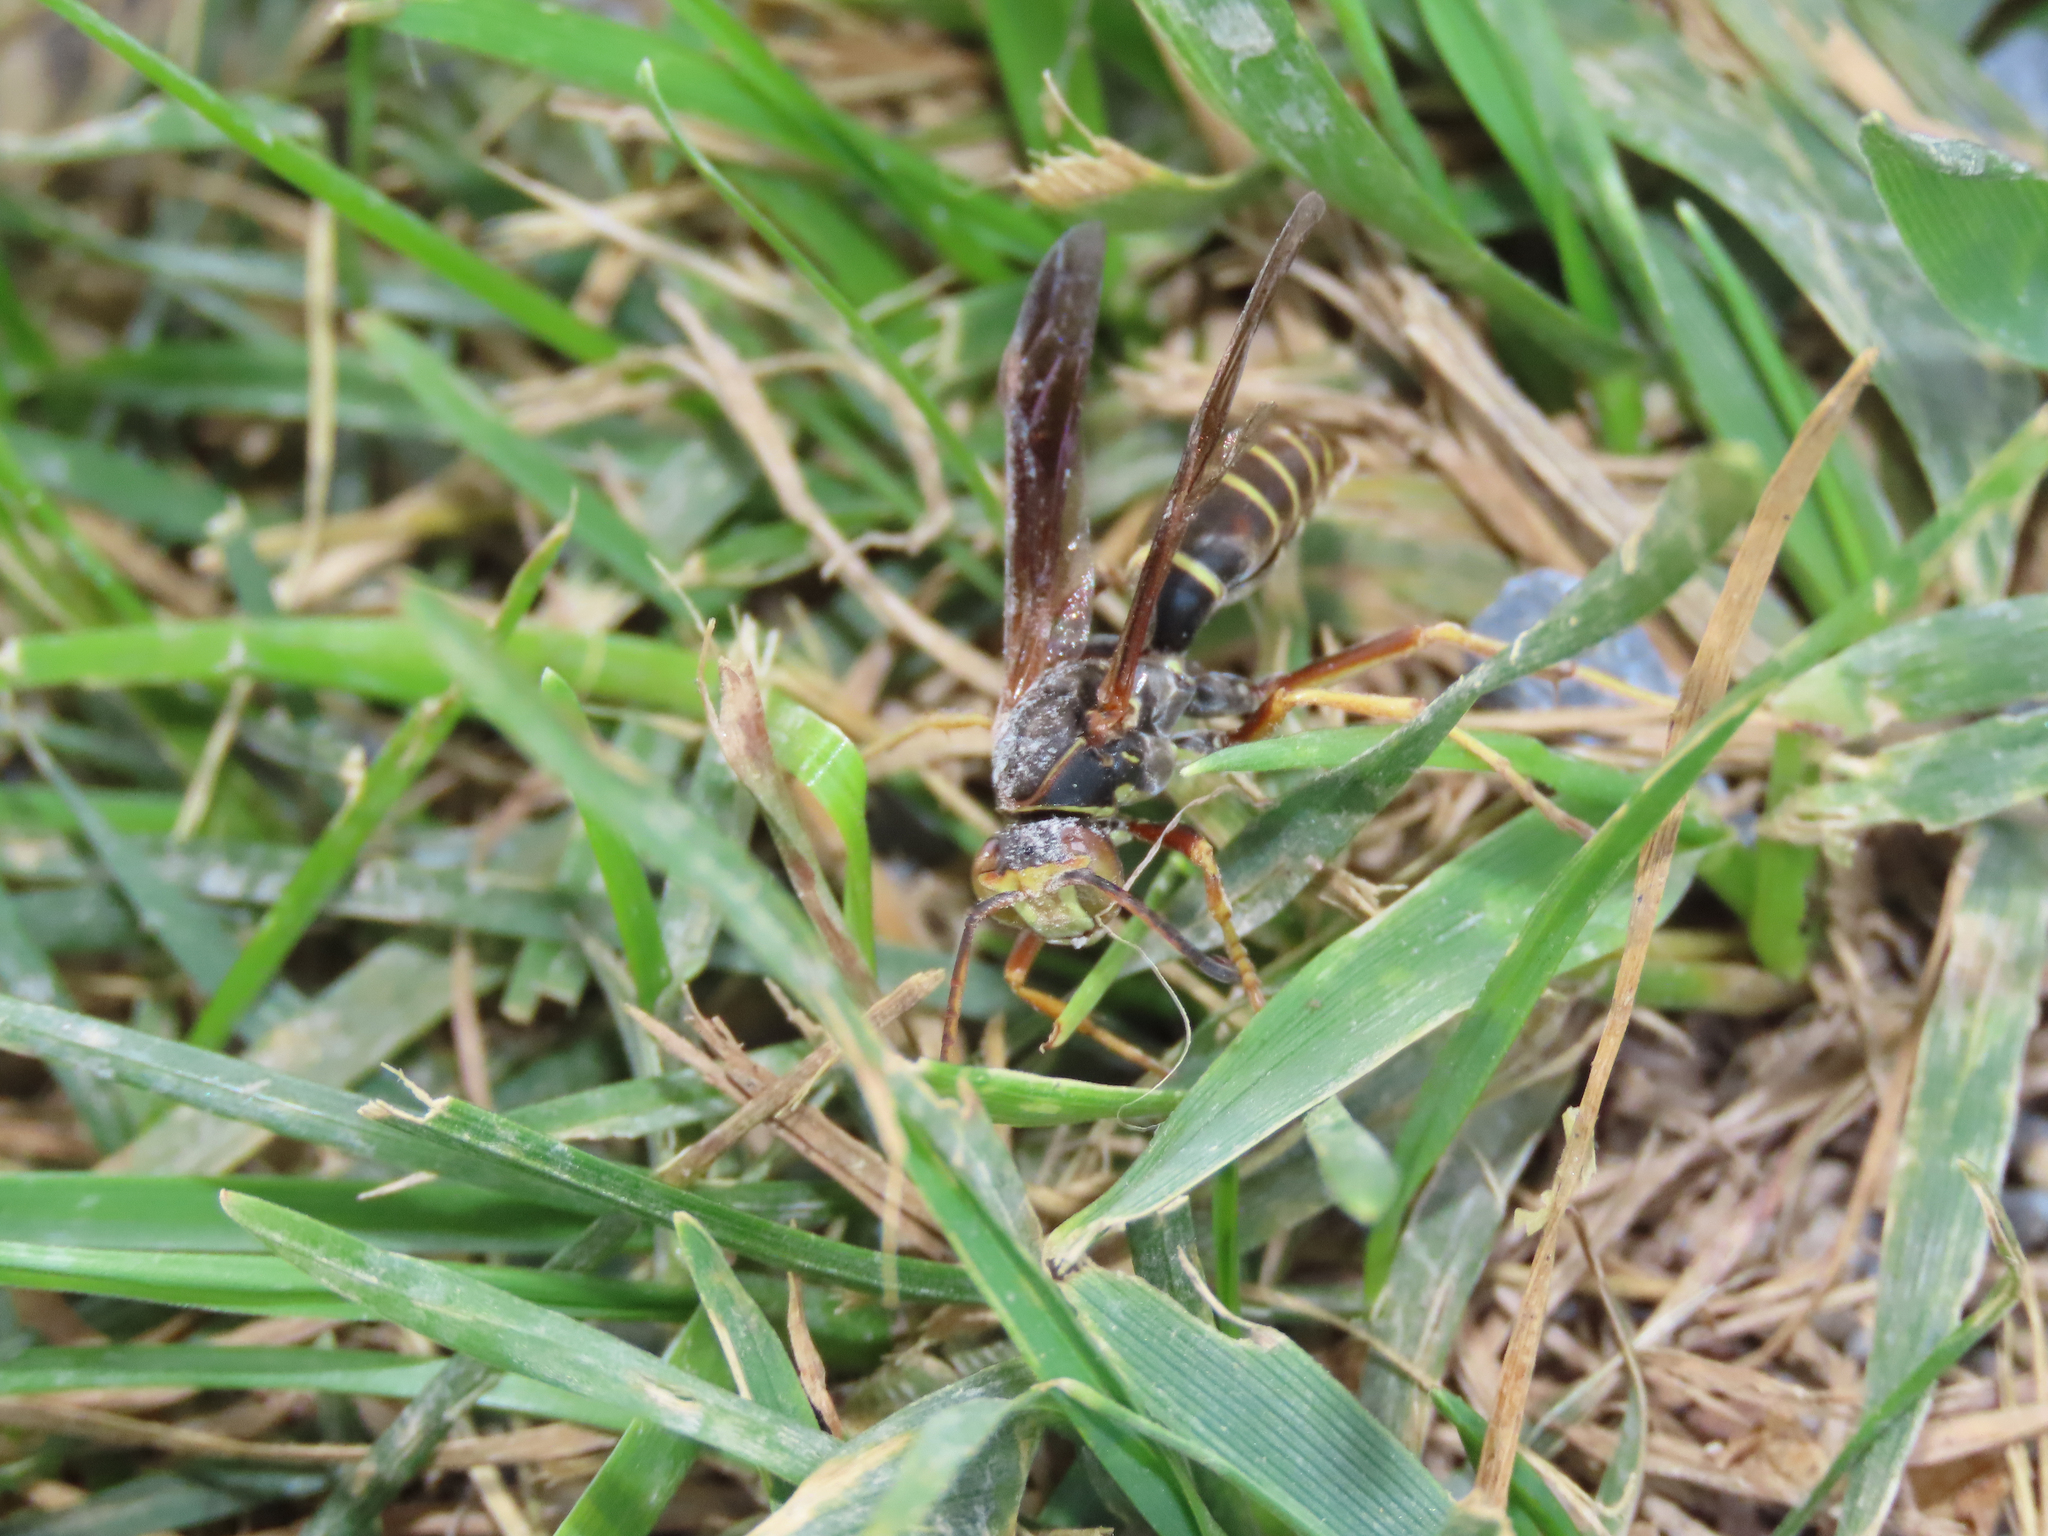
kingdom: Animalia
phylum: Arthropoda
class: Insecta
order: Hymenoptera
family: Eumenidae
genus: Polistes
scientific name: Polistes fuscatus
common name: Dark paper wasp
